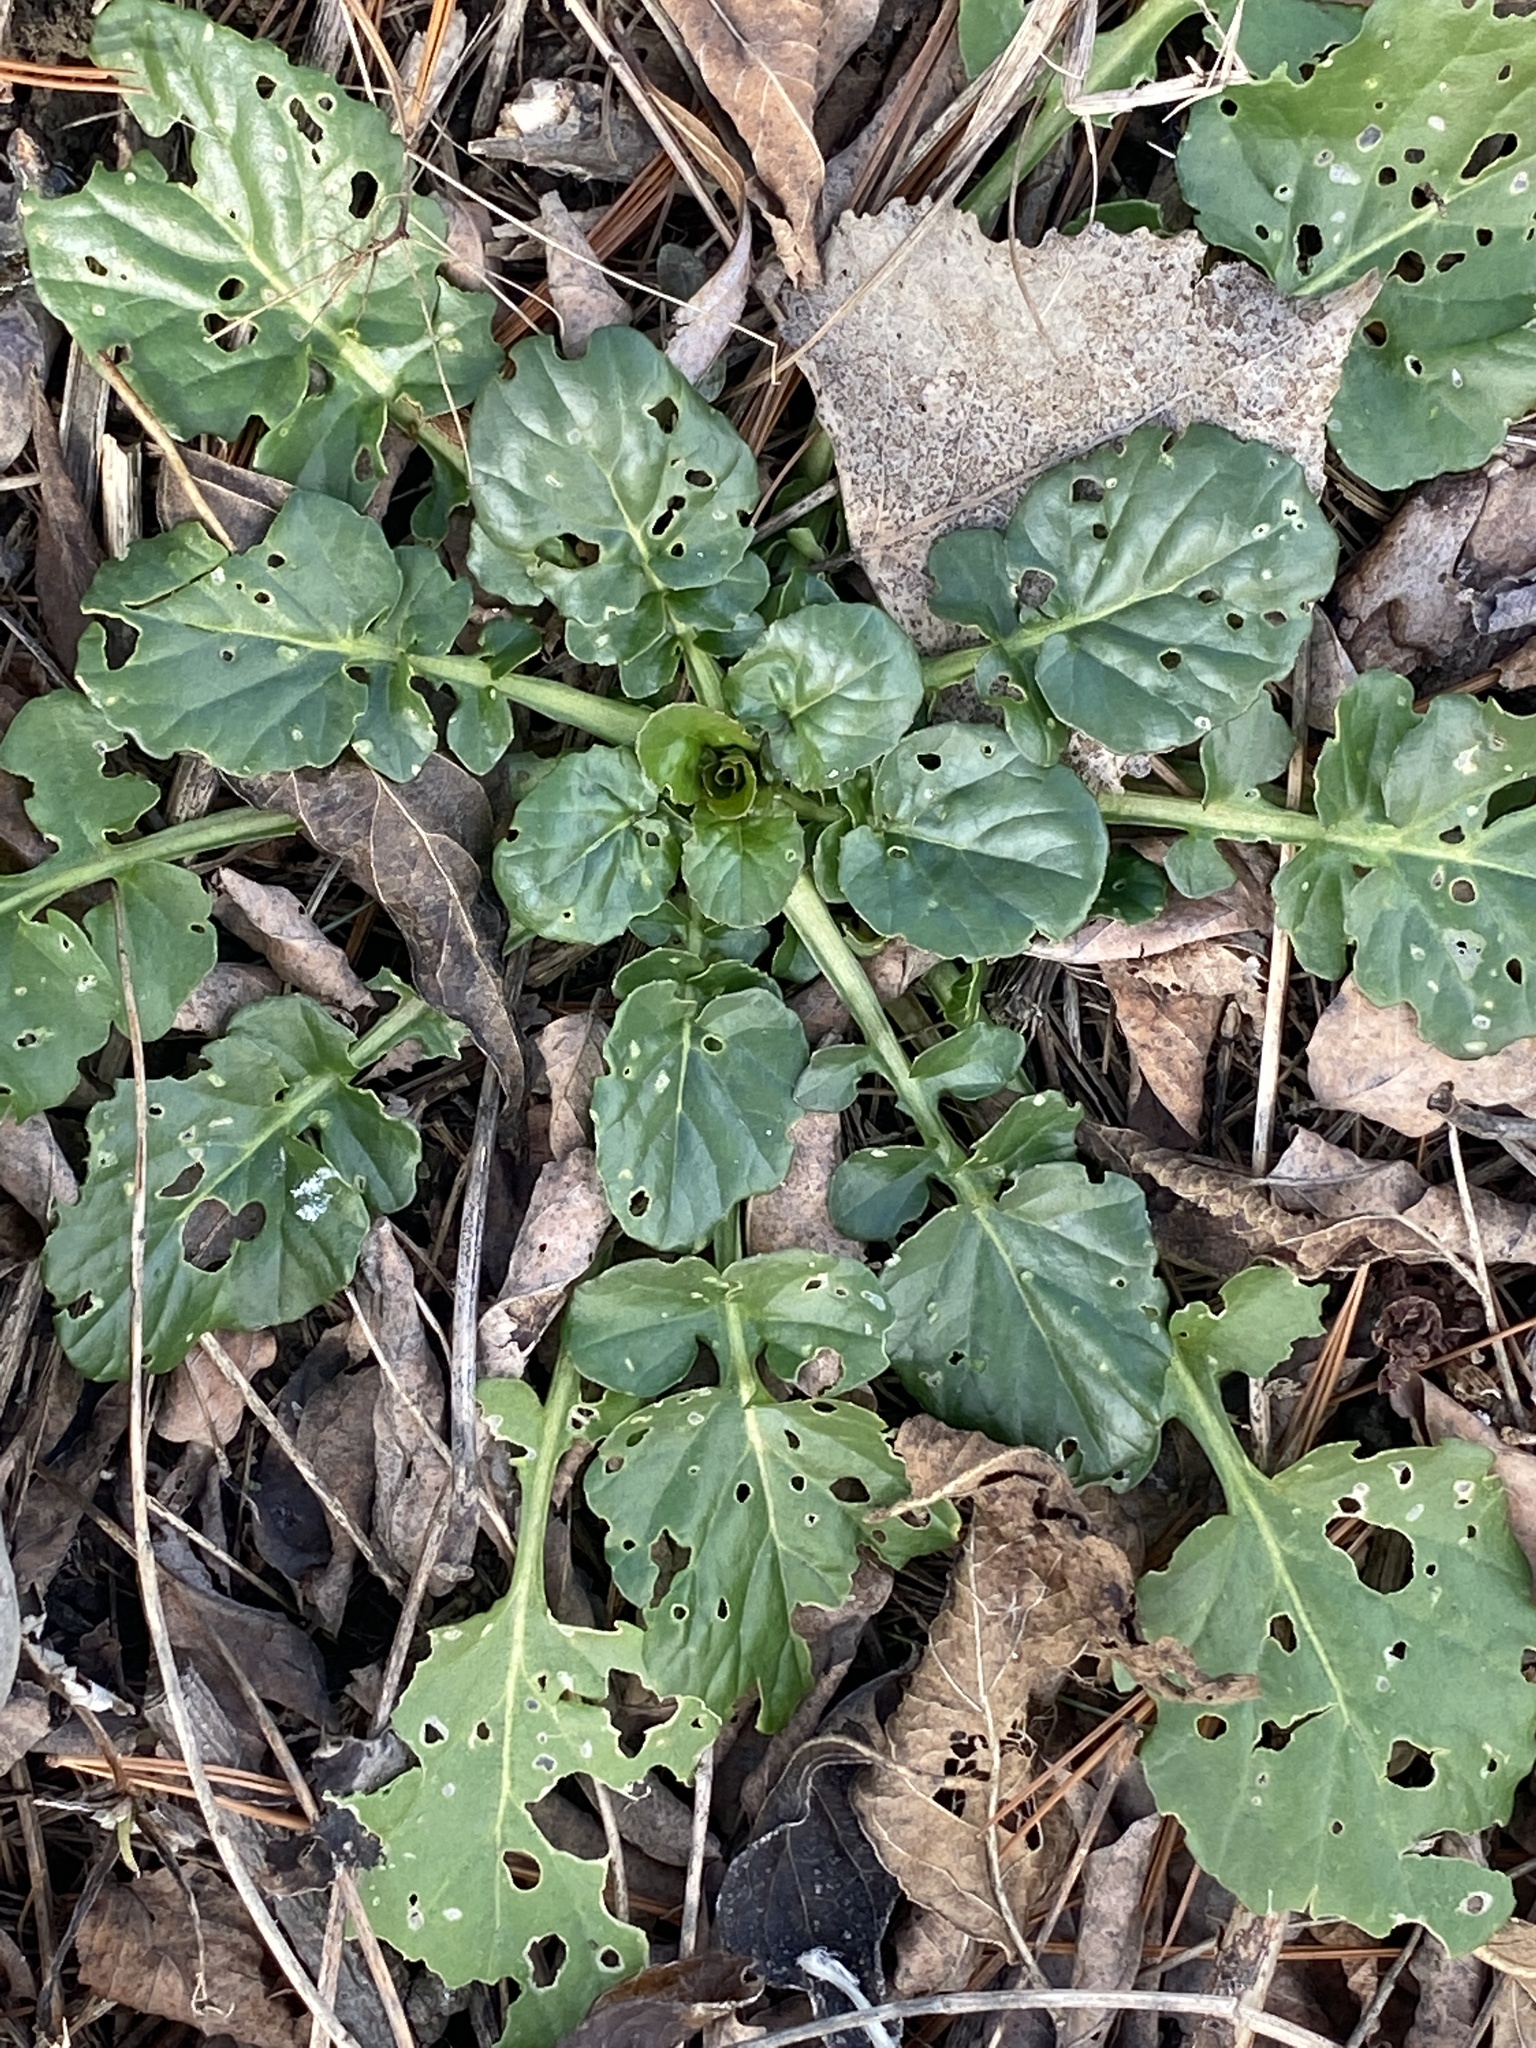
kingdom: Plantae
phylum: Tracheophyta
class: Magnoliopsida
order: Brassicales
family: Brassicaceae
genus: Barbarea
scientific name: Barbarea vulgaris
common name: Cressy-greens
